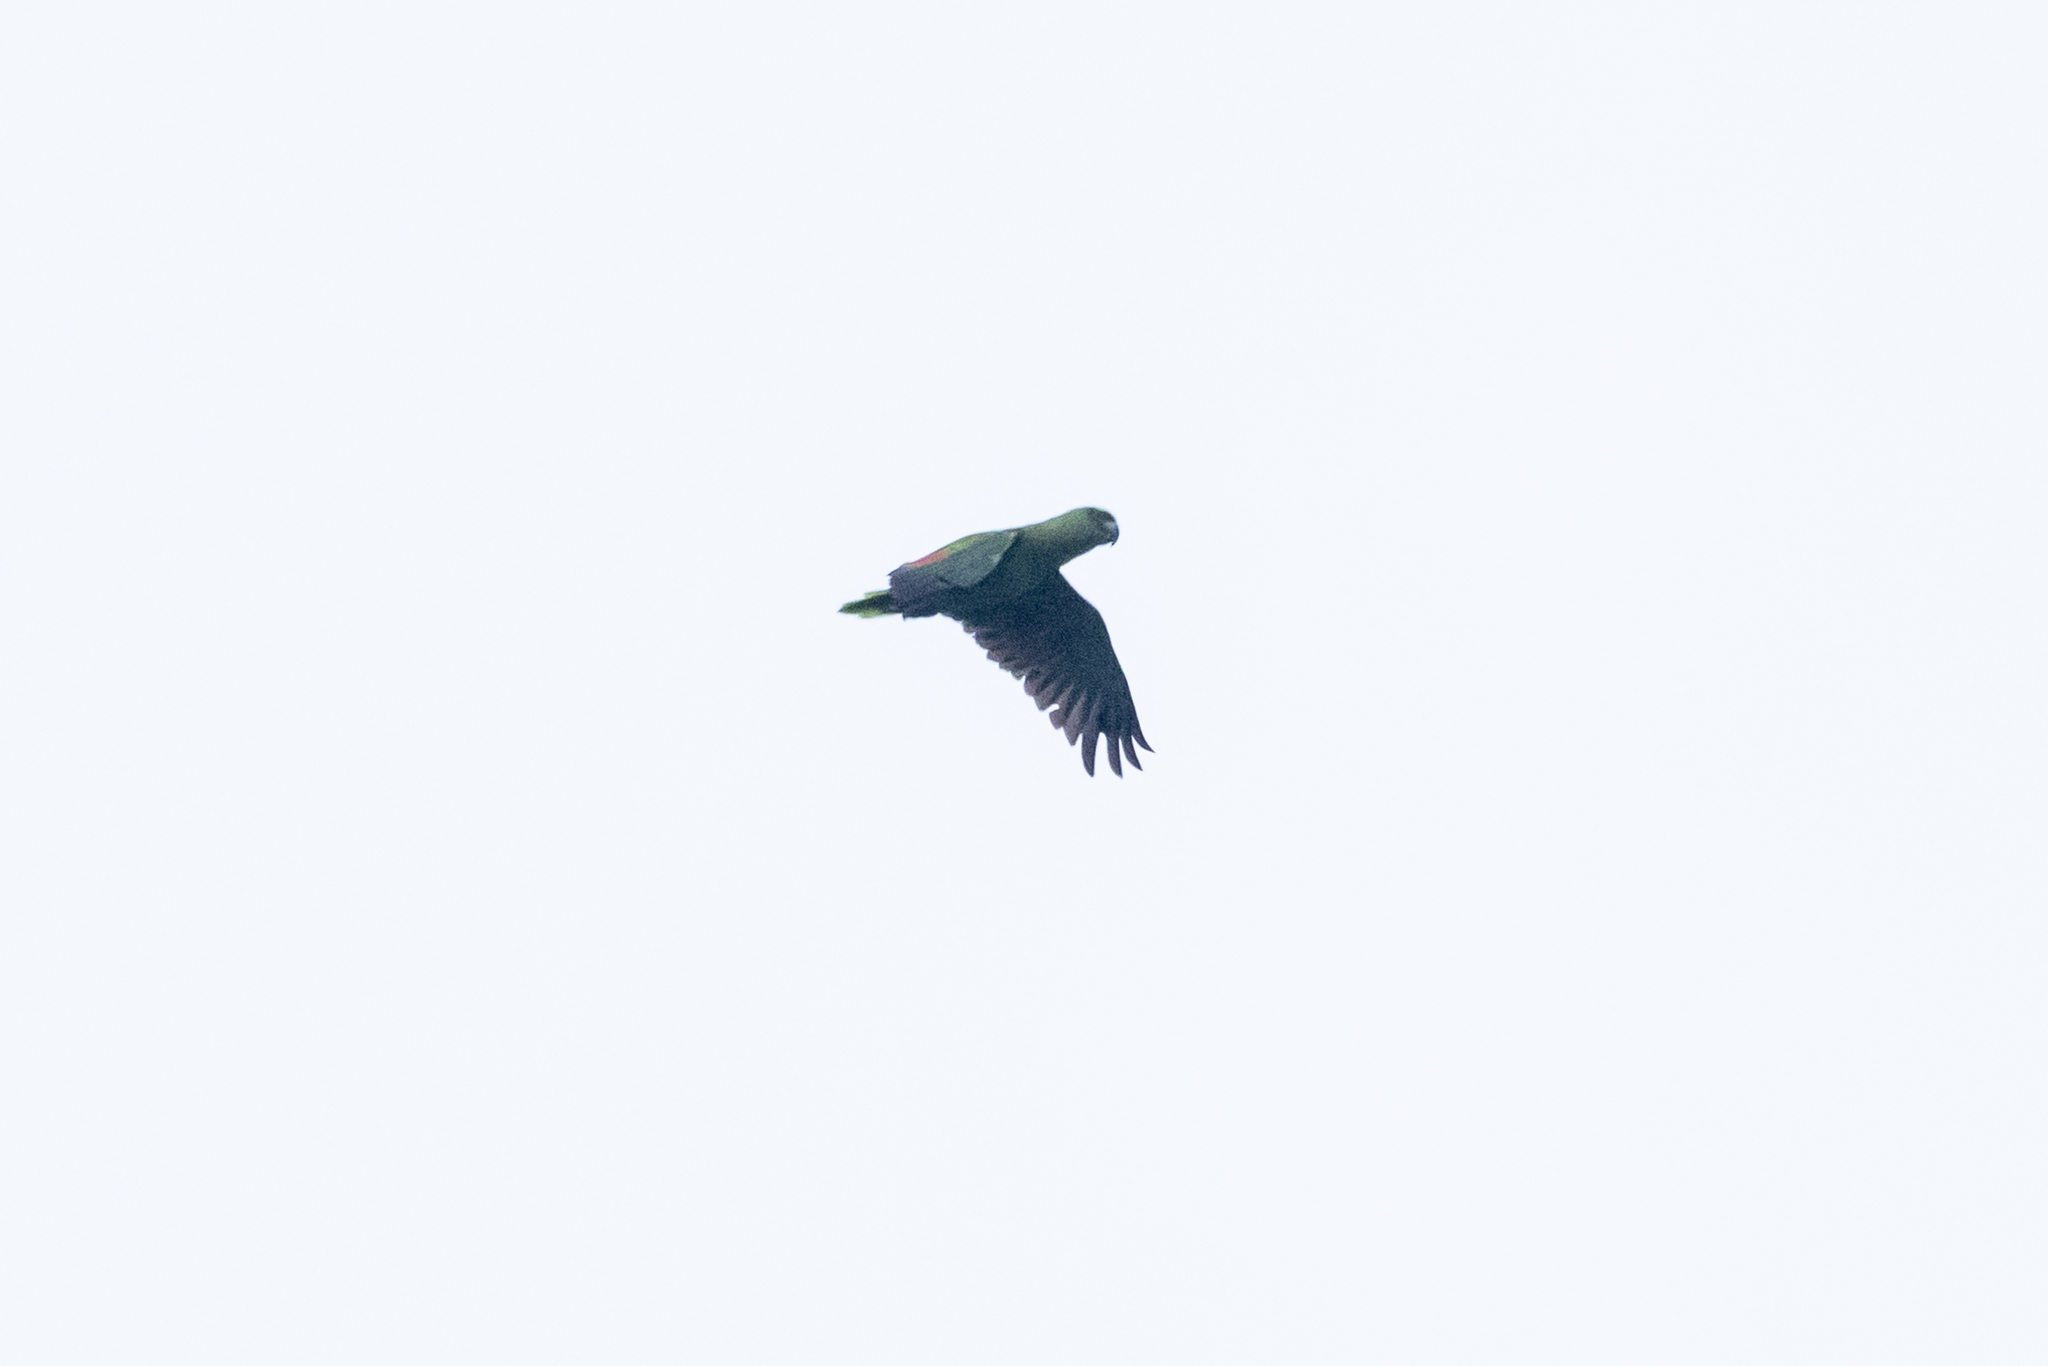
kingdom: Animalia
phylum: Chordata
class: Aves
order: Psittaciformes
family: Psittacidae
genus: Amazona
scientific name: Amazona auropalliata
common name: Yellow-naped amazon
